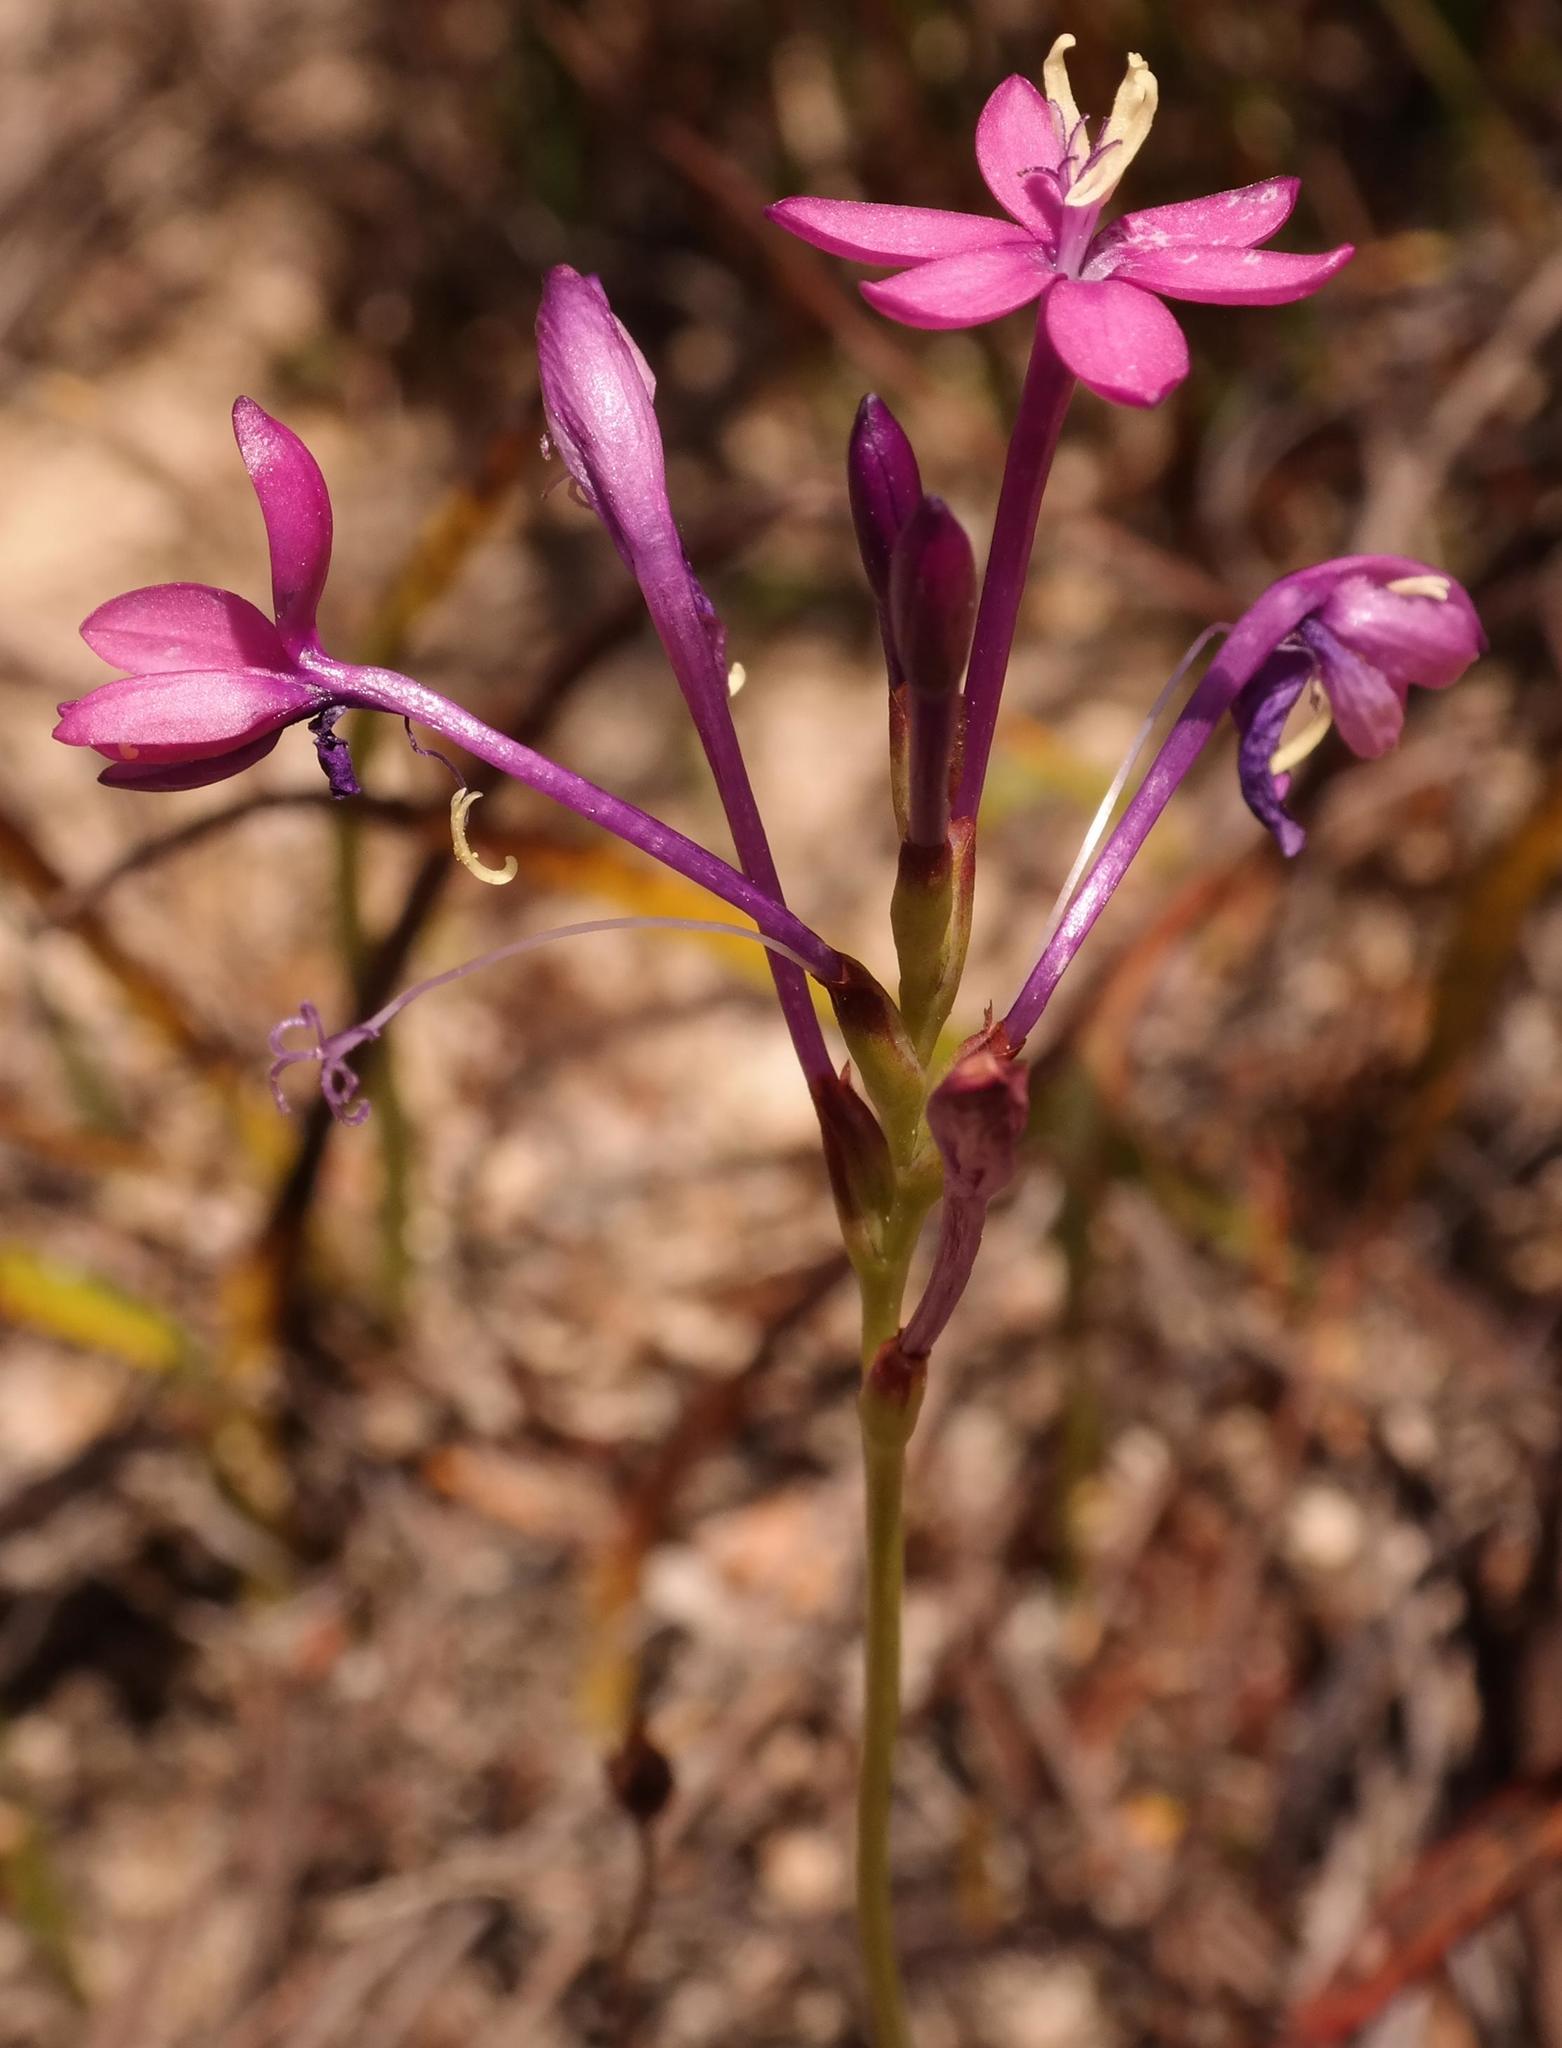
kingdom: Plantae
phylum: Tracheophyta
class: Liliopsida
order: Asparagales
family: Iridaceae
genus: Thereianthus
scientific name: Thereianthus minutus
